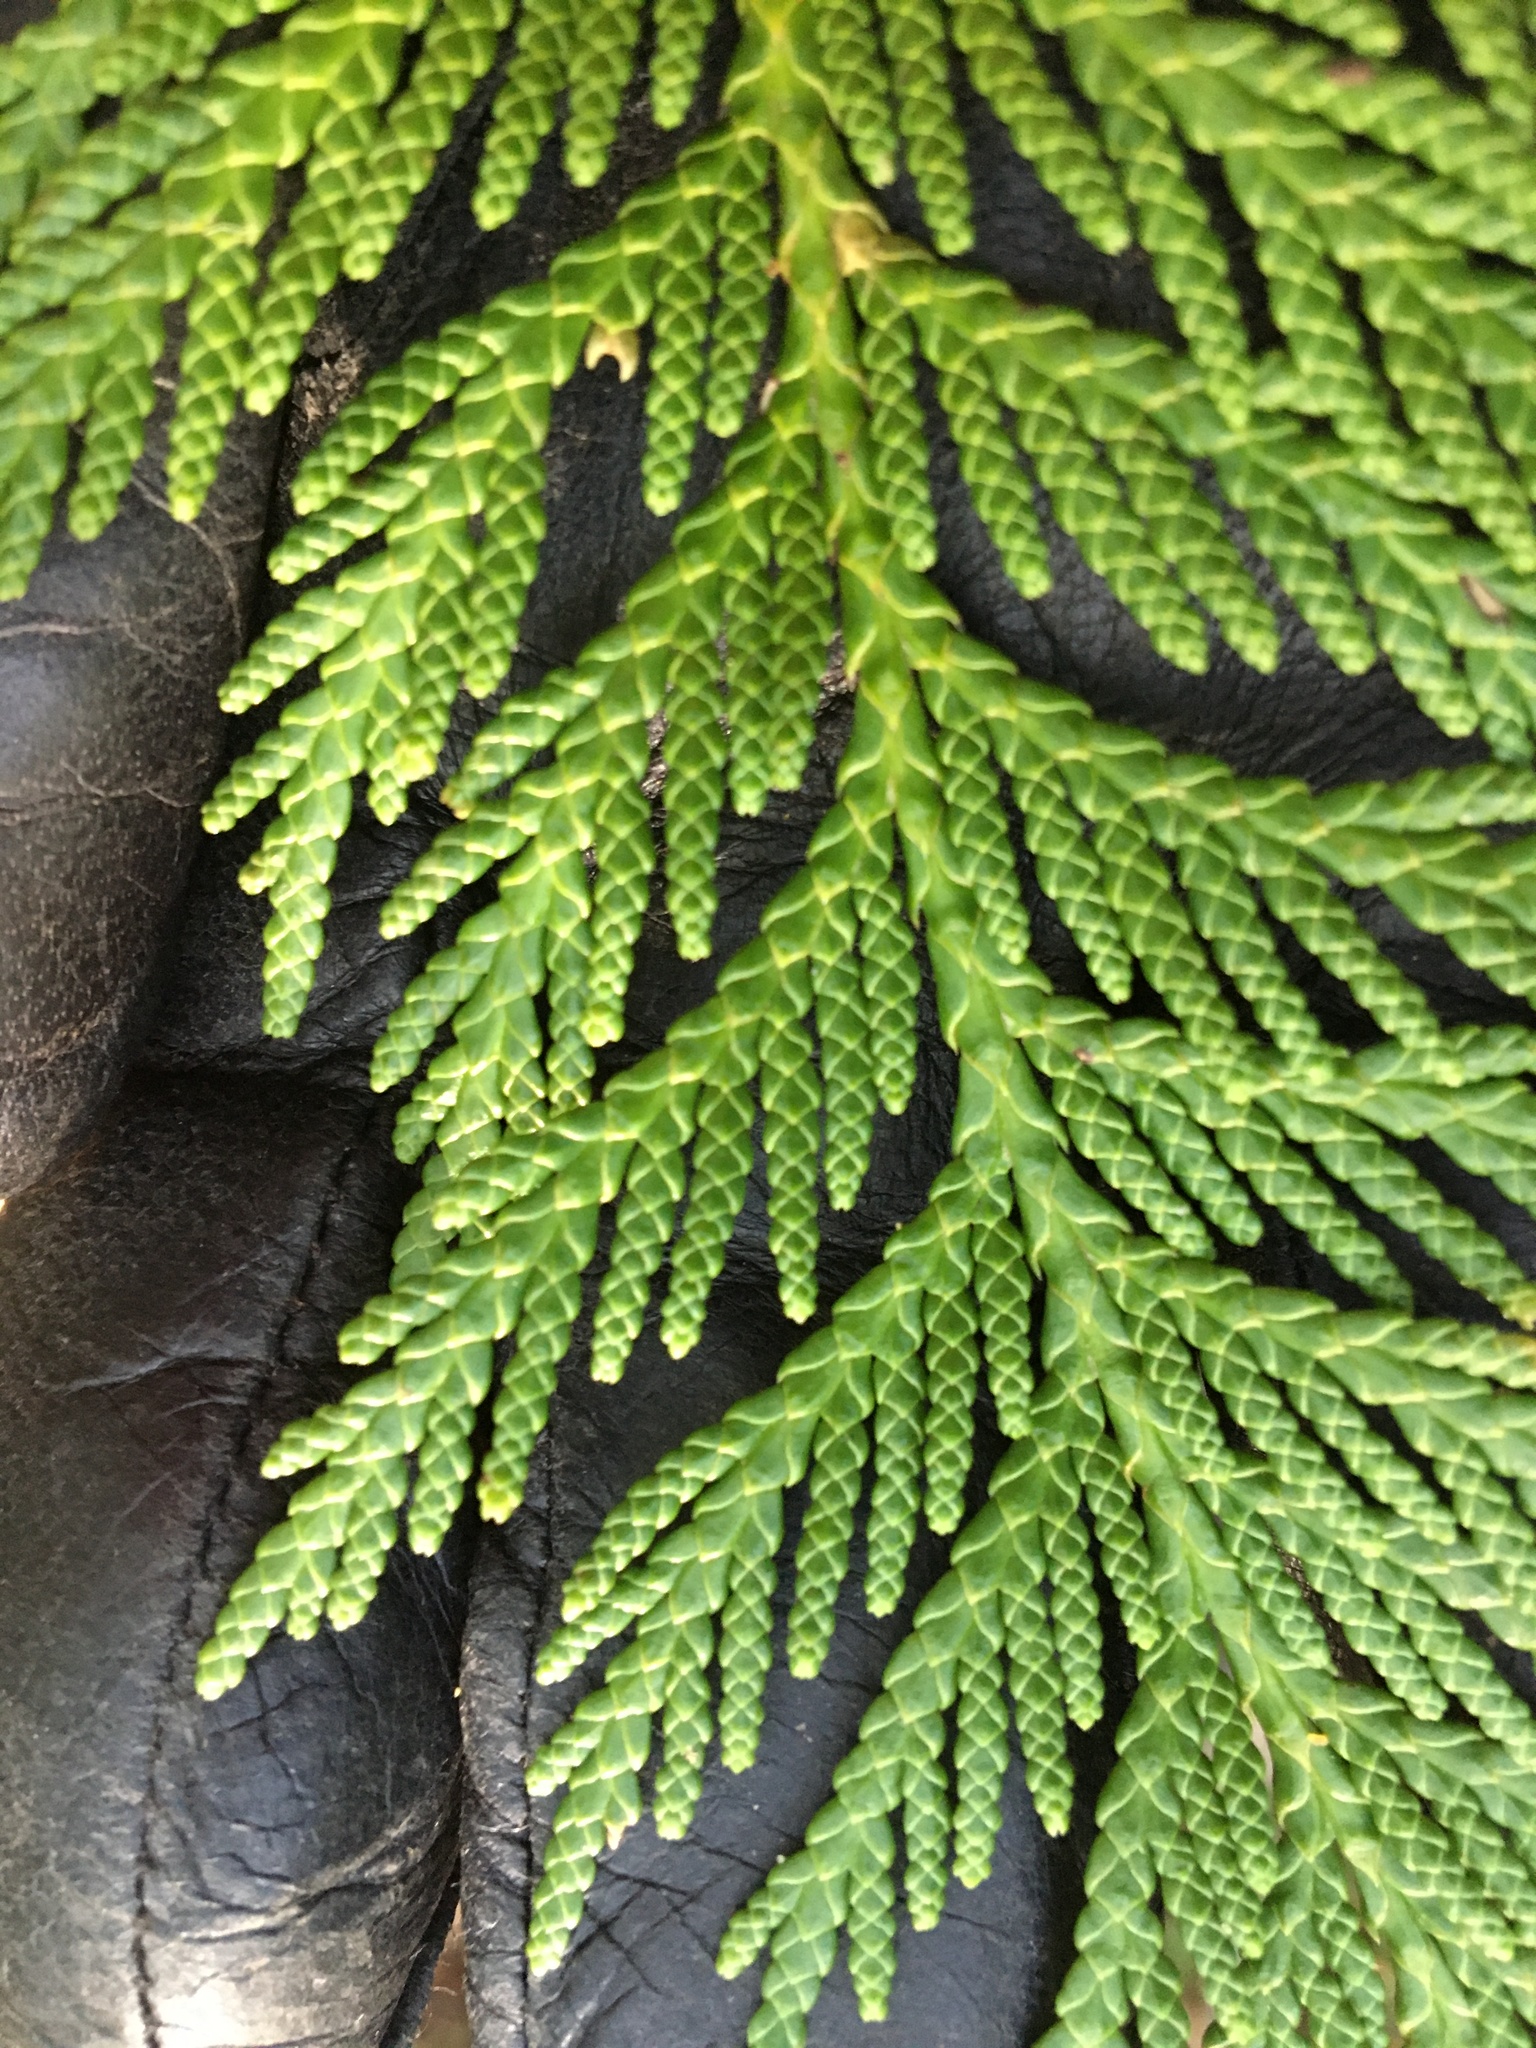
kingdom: Plantae
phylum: Tracheophyta
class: Pinopsida
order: Pinales
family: Cupressaceae
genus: Thuja
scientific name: Thuja plicata
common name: Western red-cedar
